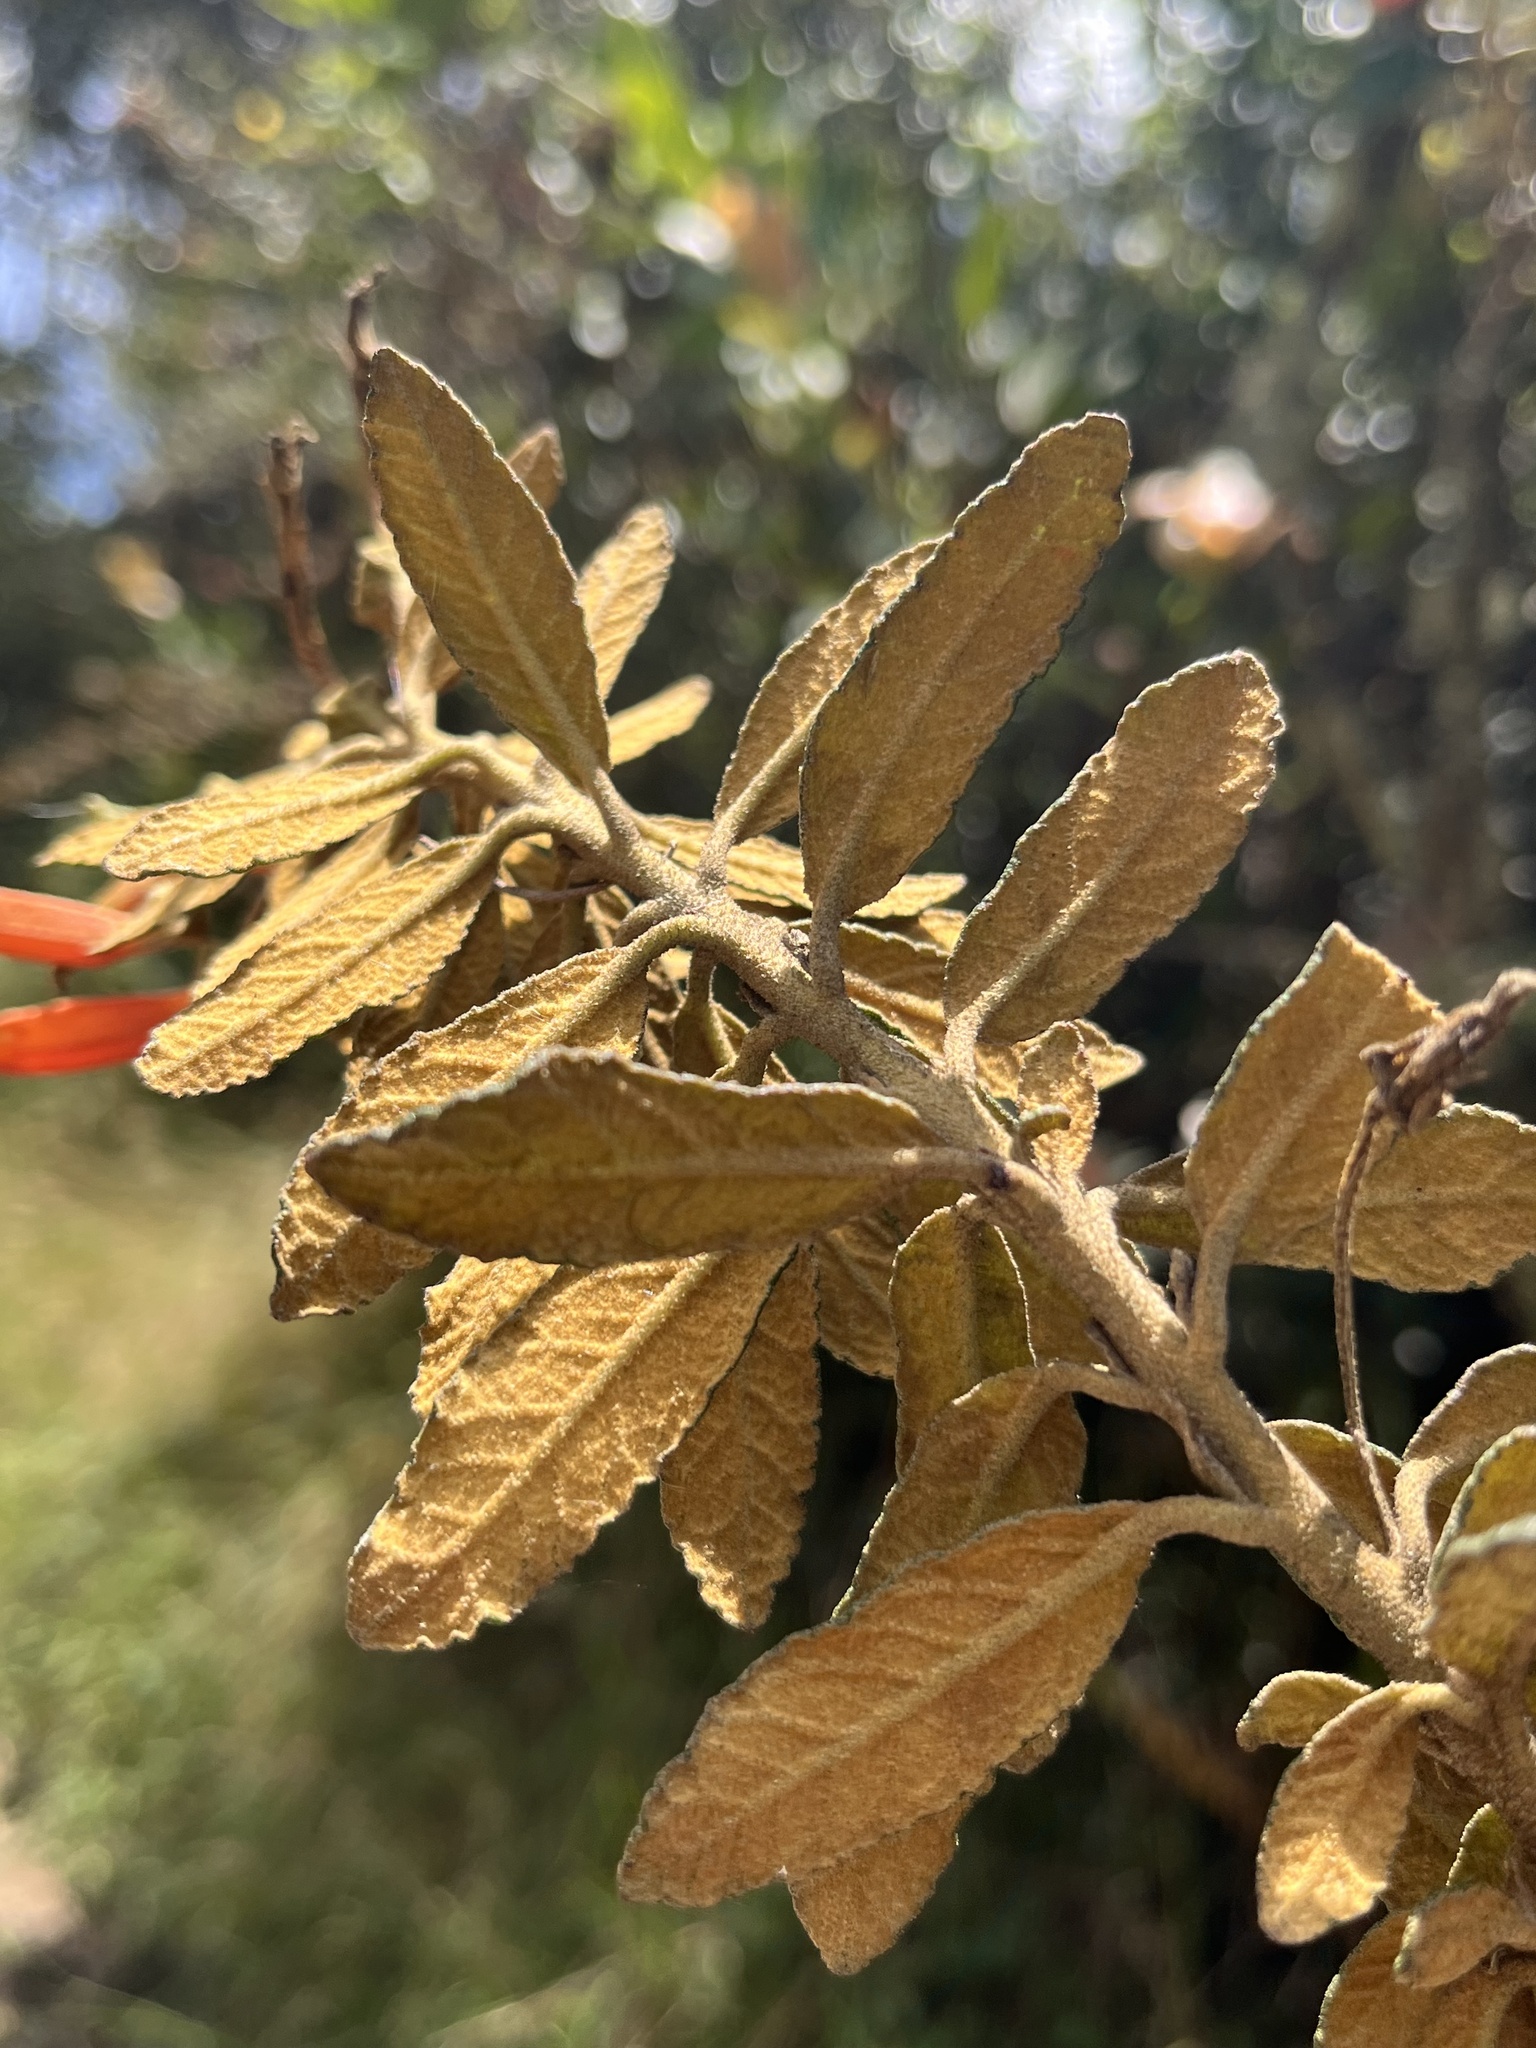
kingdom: Plantae
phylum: Tracheophyta
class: Magnoliopsida
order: Asterales
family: Campanulaceae
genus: Siphocampylus
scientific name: Siphocampylus columnae
